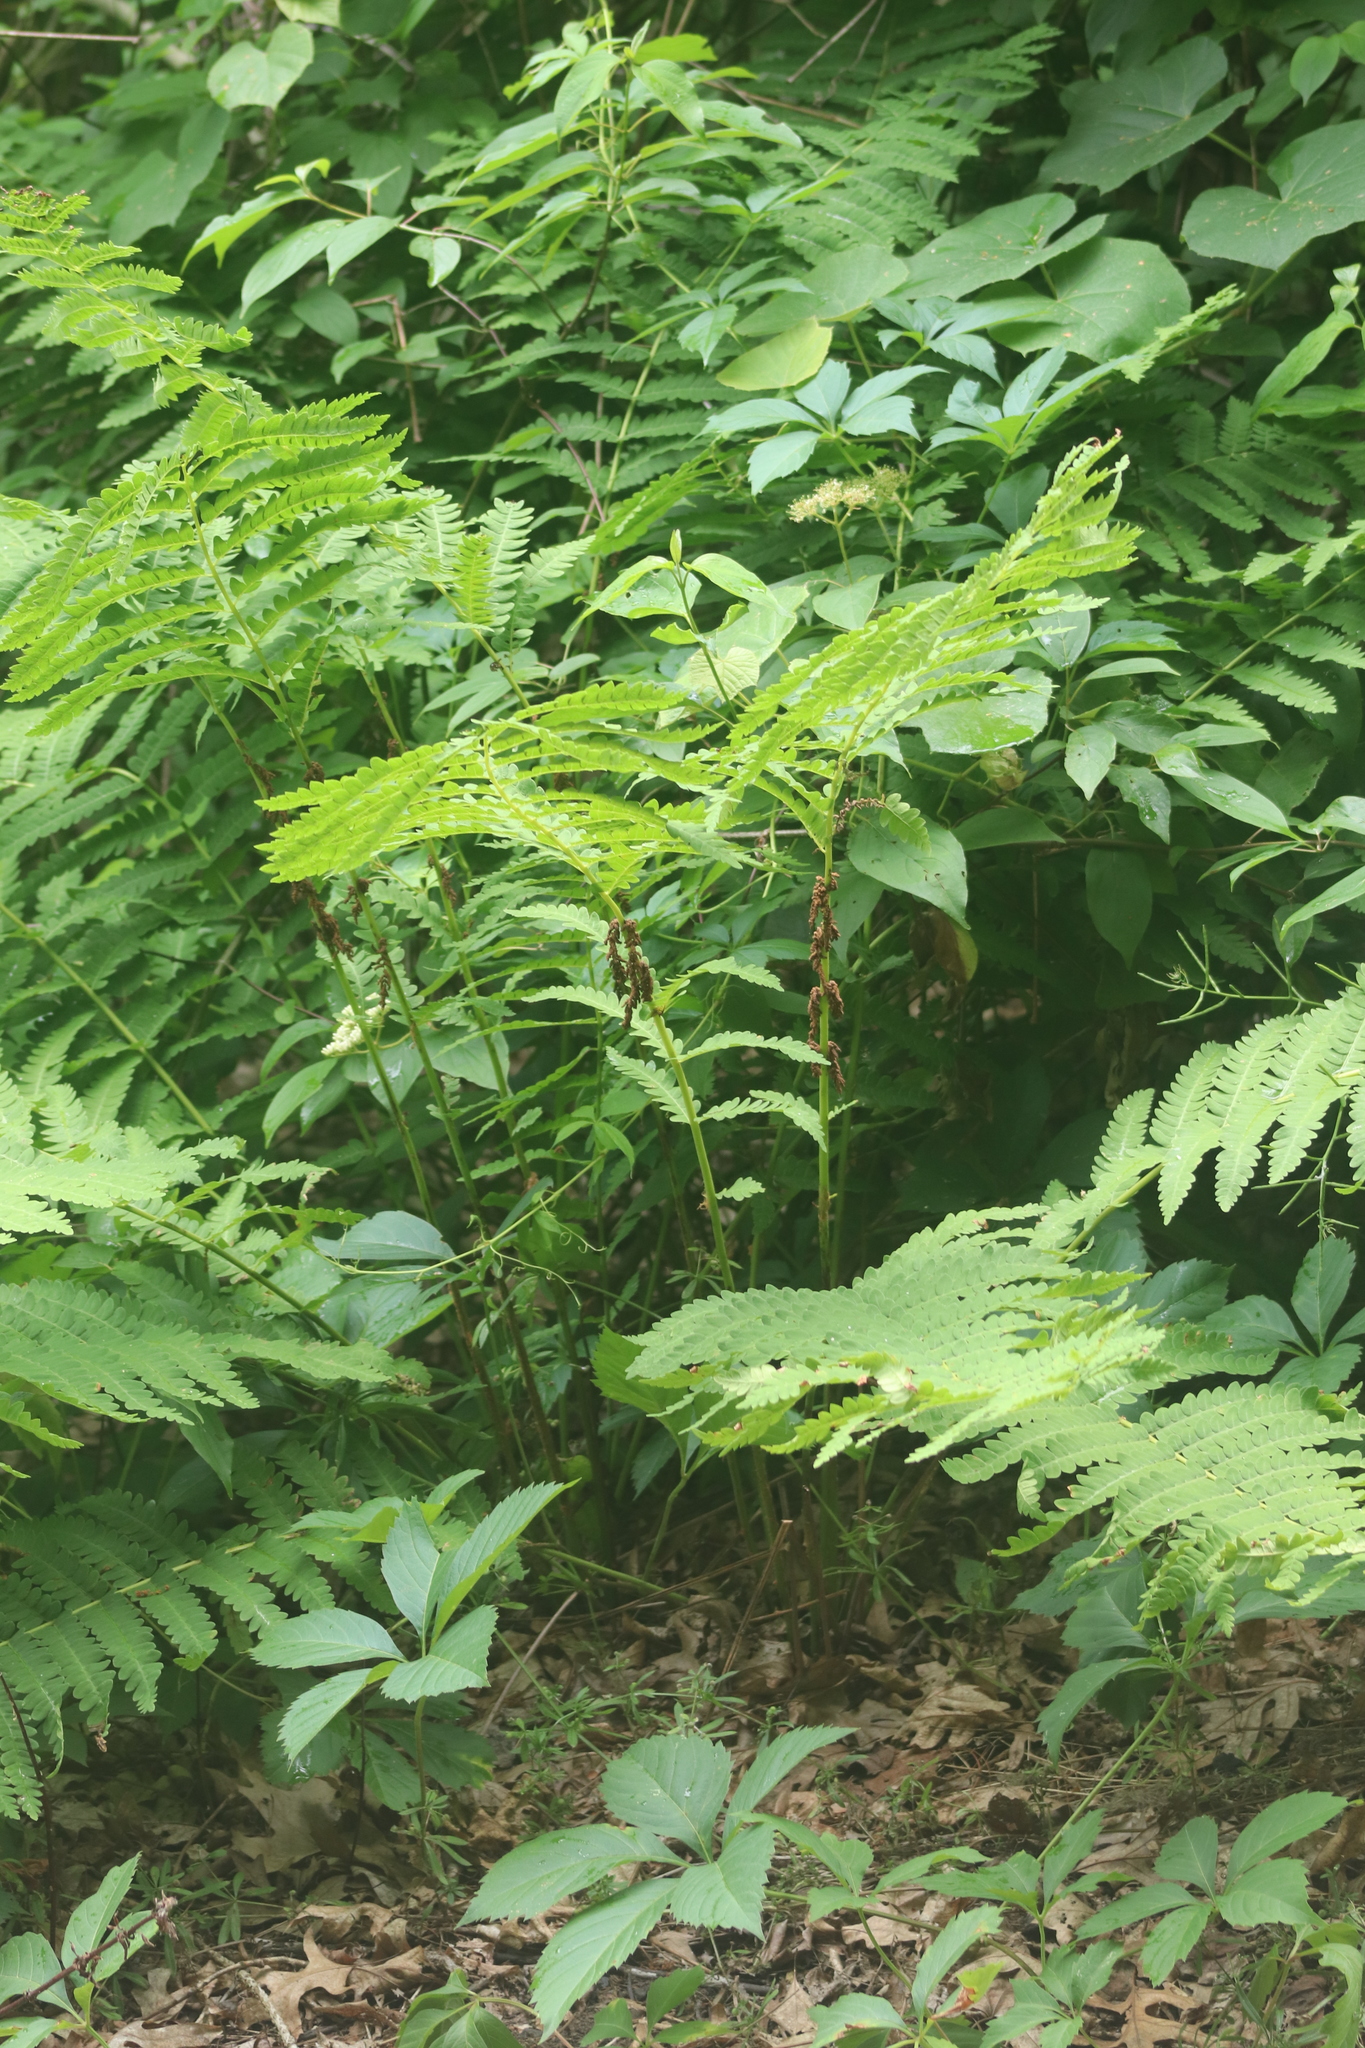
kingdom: Plantae
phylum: Tracheophyta
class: Polypodiopsida
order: Osmundales
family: Osmundaceae
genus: Claytosmunda
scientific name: Claytosmunda claytoniana
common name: Clayton's fern
